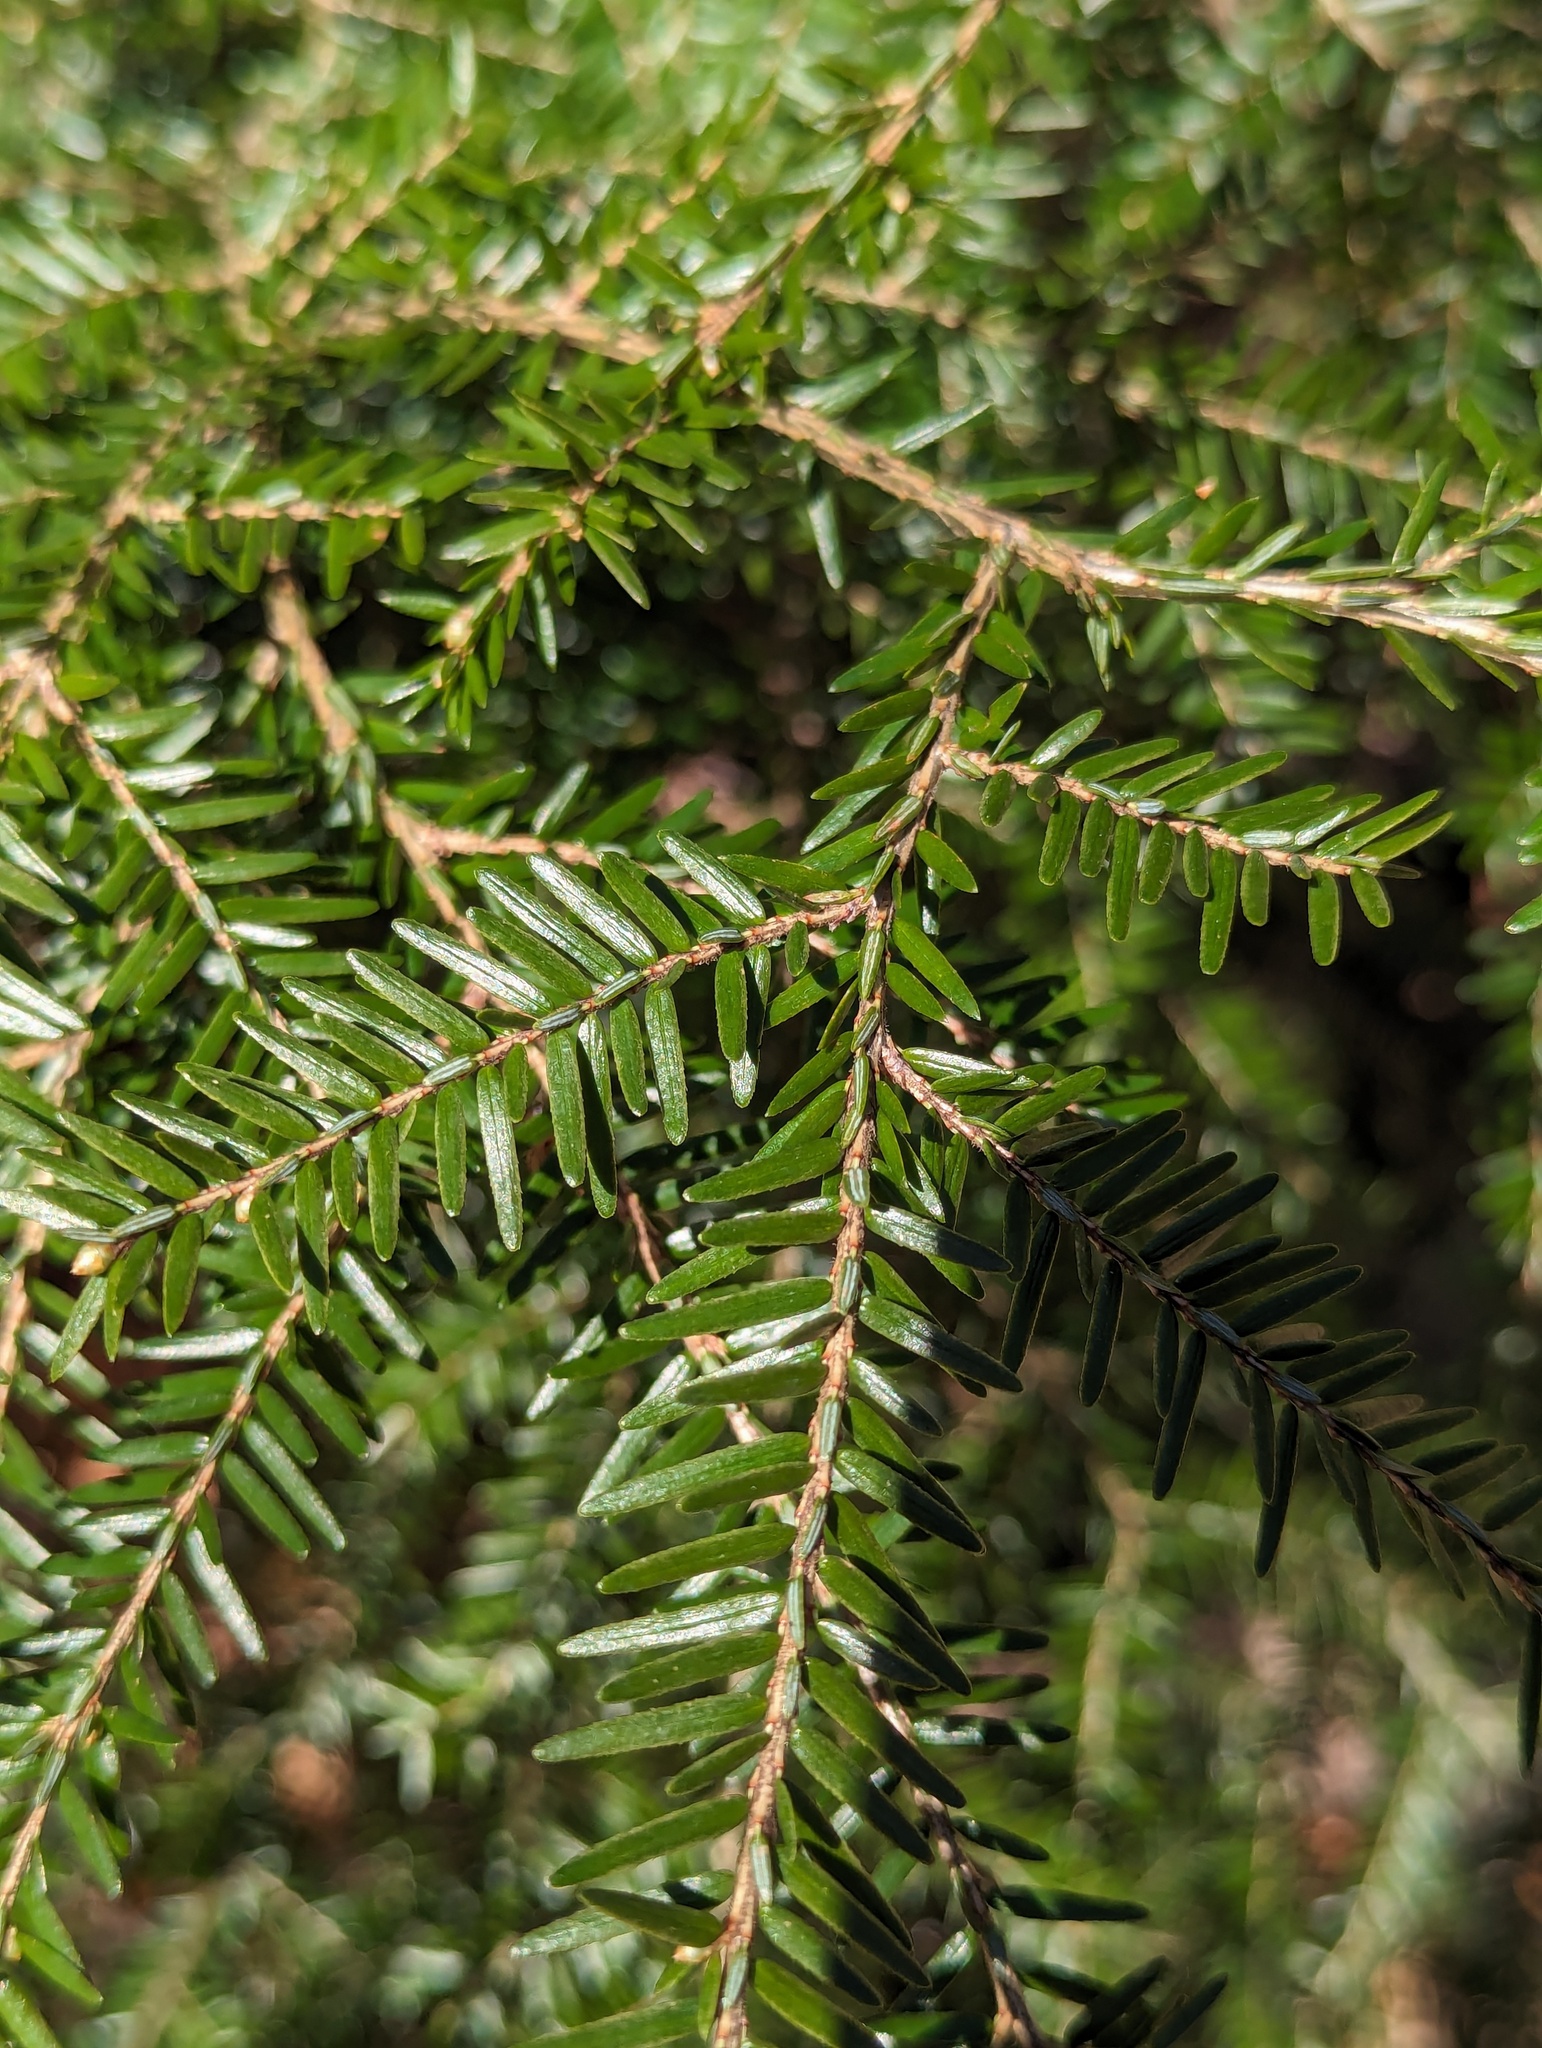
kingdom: Plantae
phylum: Tracheophyta
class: Pinopsida
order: Pinales
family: Pinaceae
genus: Tsuga
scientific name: Tsuga canadensis
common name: Eastern hemlock
